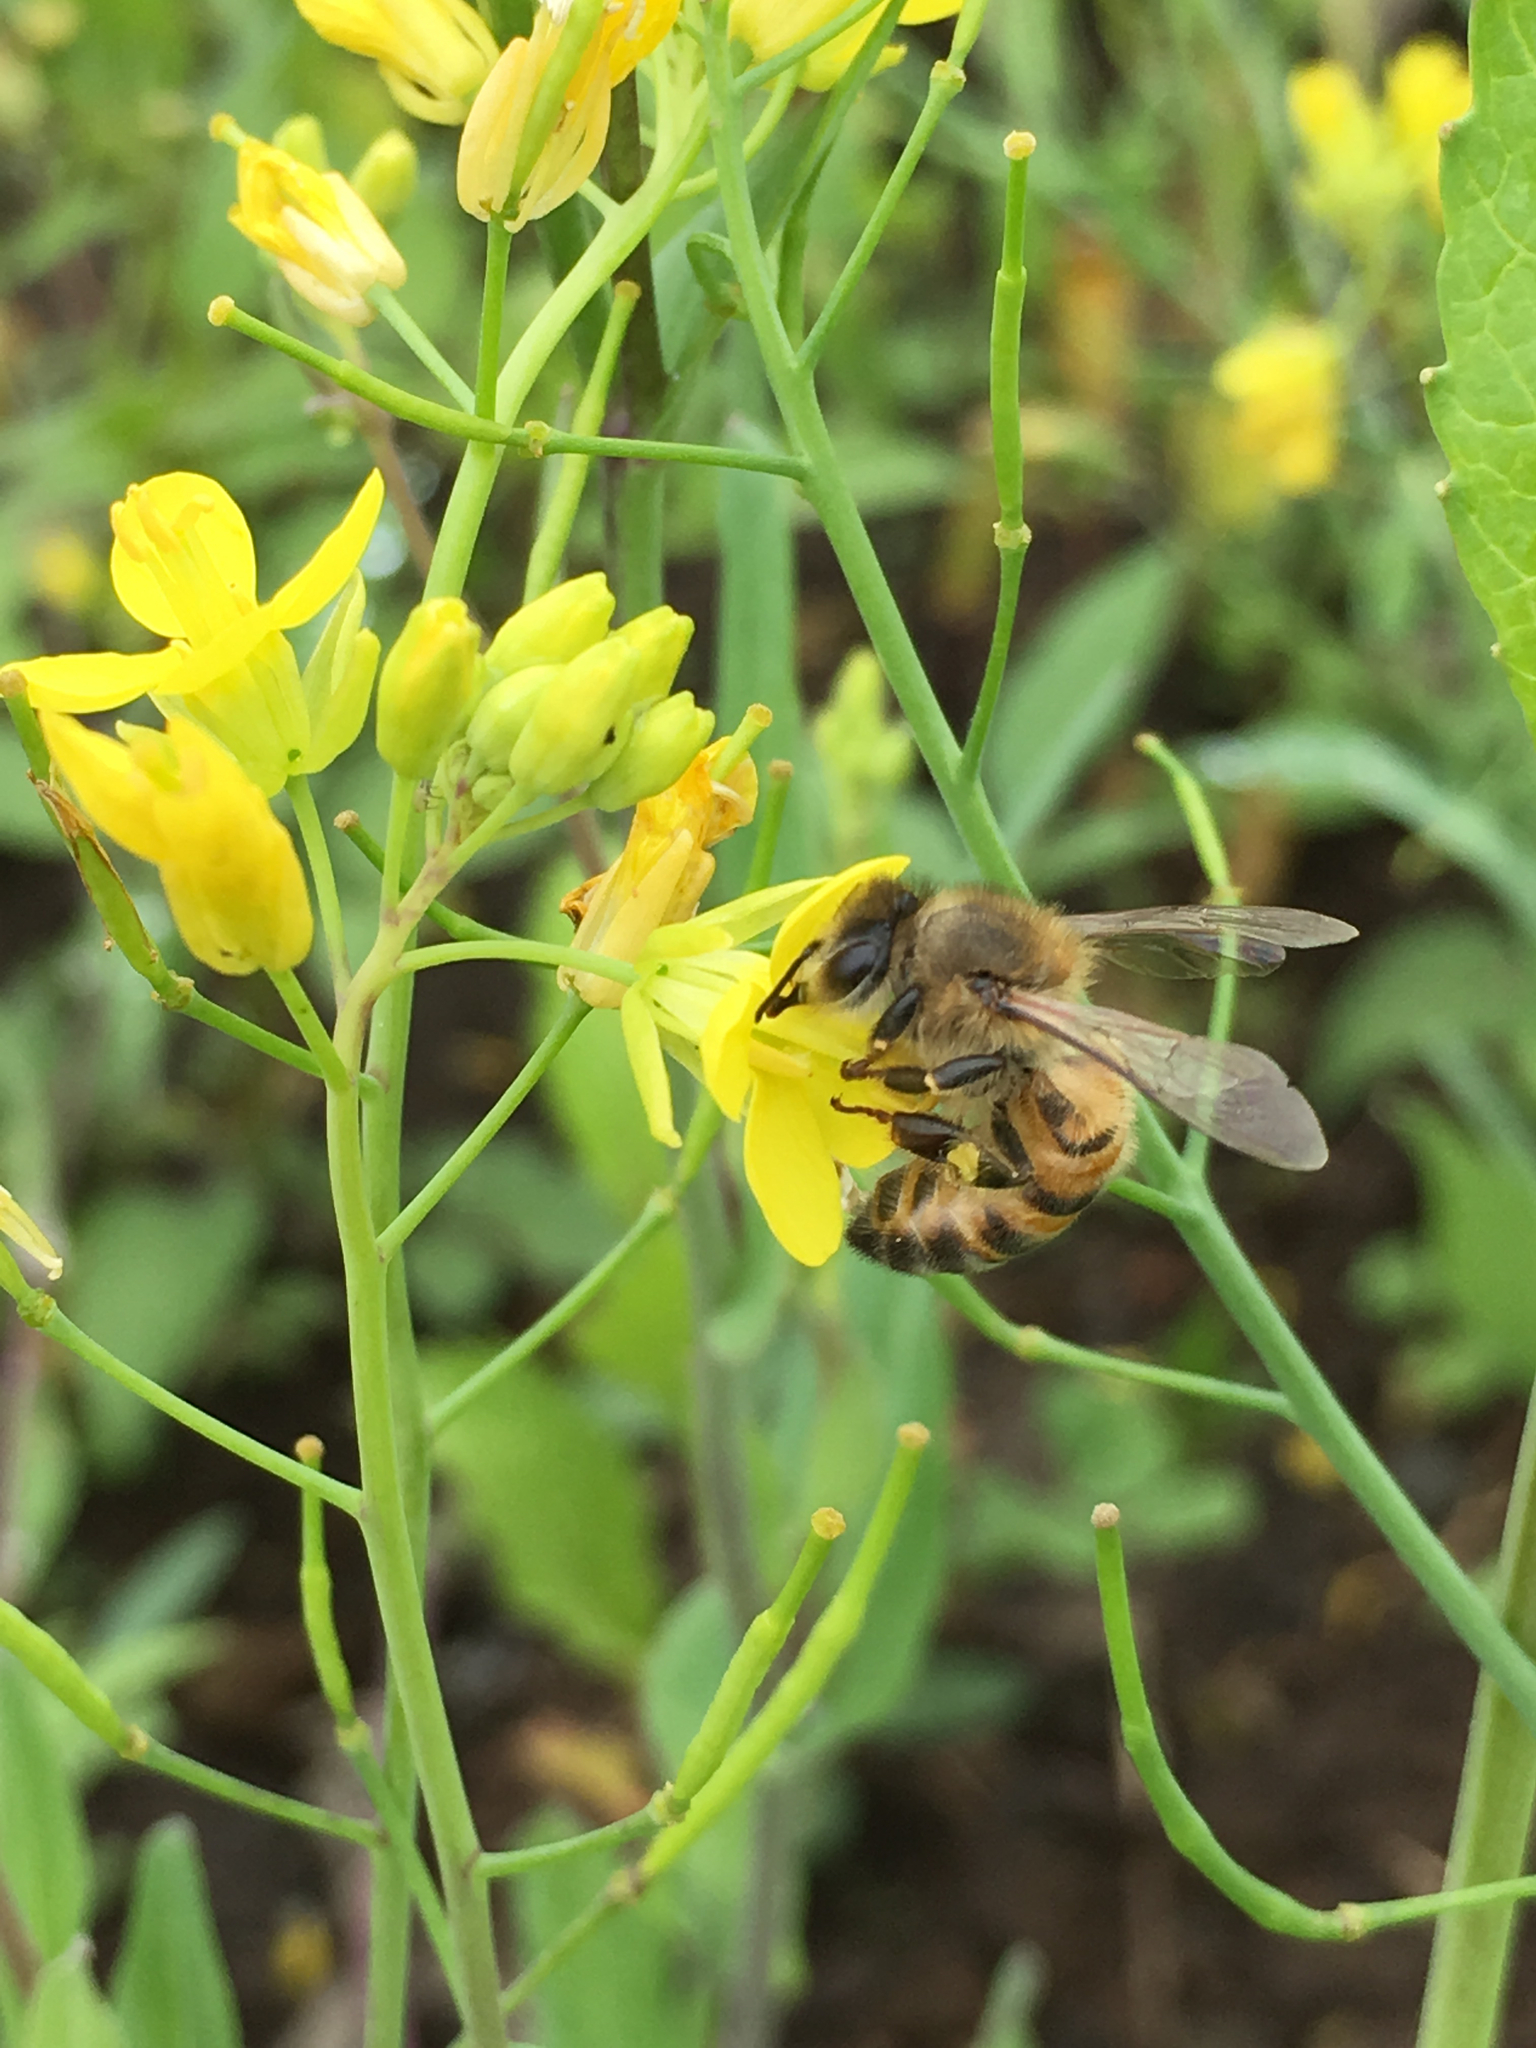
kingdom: Animalia
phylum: Arthropoda
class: Insecta
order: Hymenoptera
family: Apidae
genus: Apis
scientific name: Apis mellifera
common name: Honey bee
